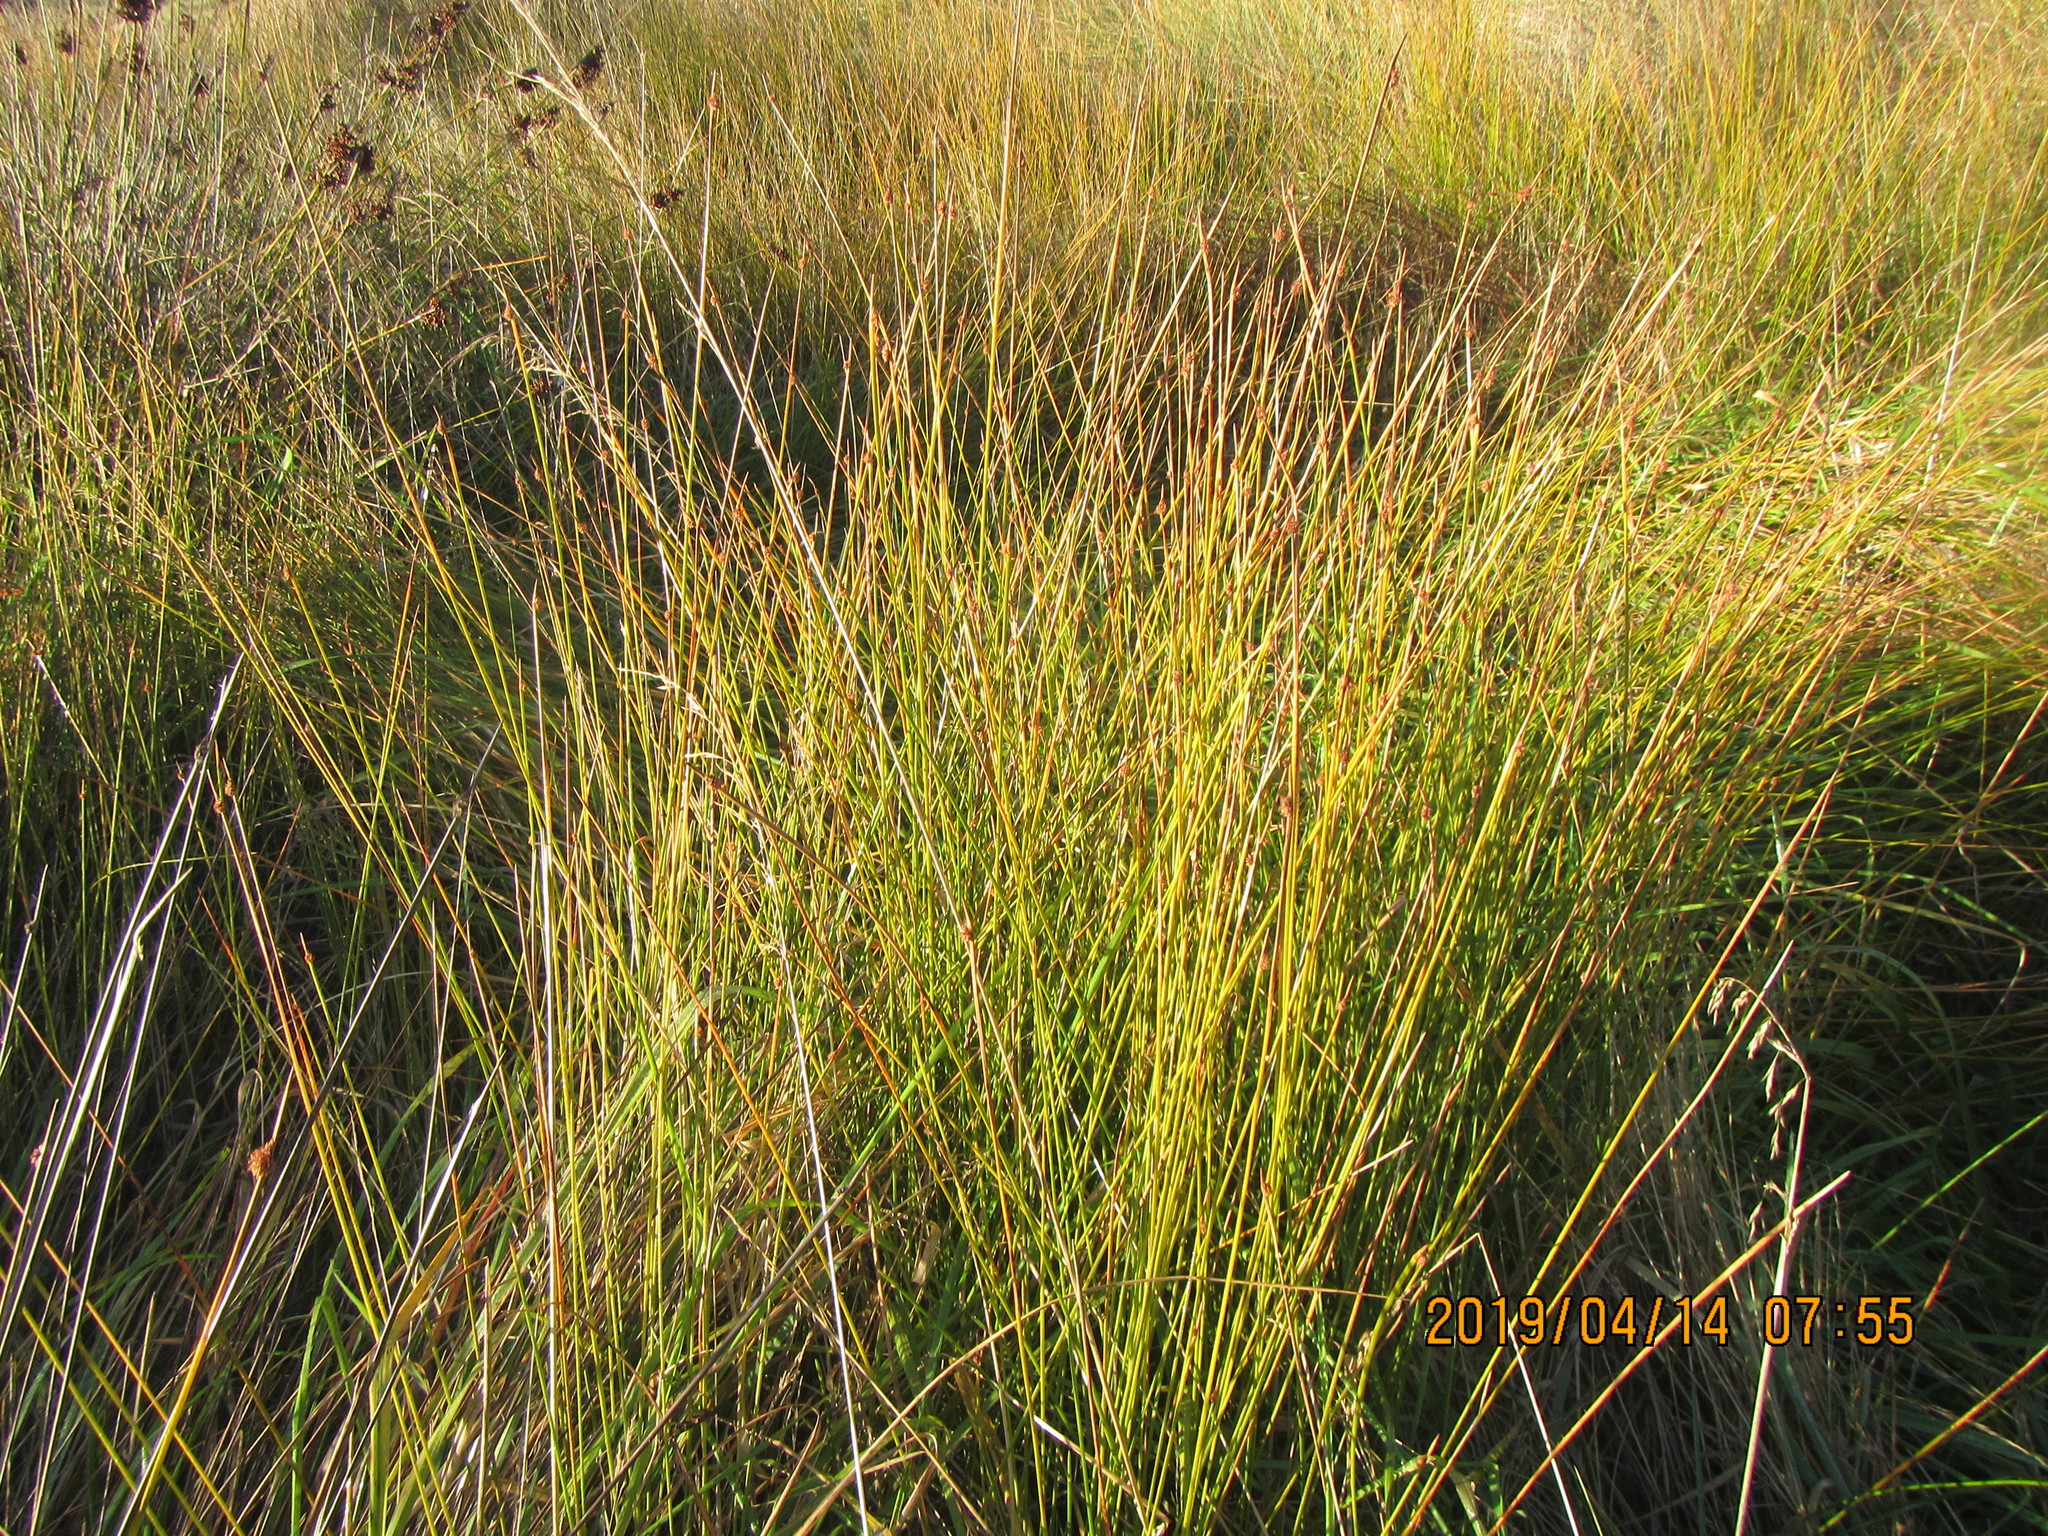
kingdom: Plantae
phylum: Tracheophyta
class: Liliopsida
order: Poales
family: Cyperaceae
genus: Ficinia
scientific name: Ficinia nodosa
